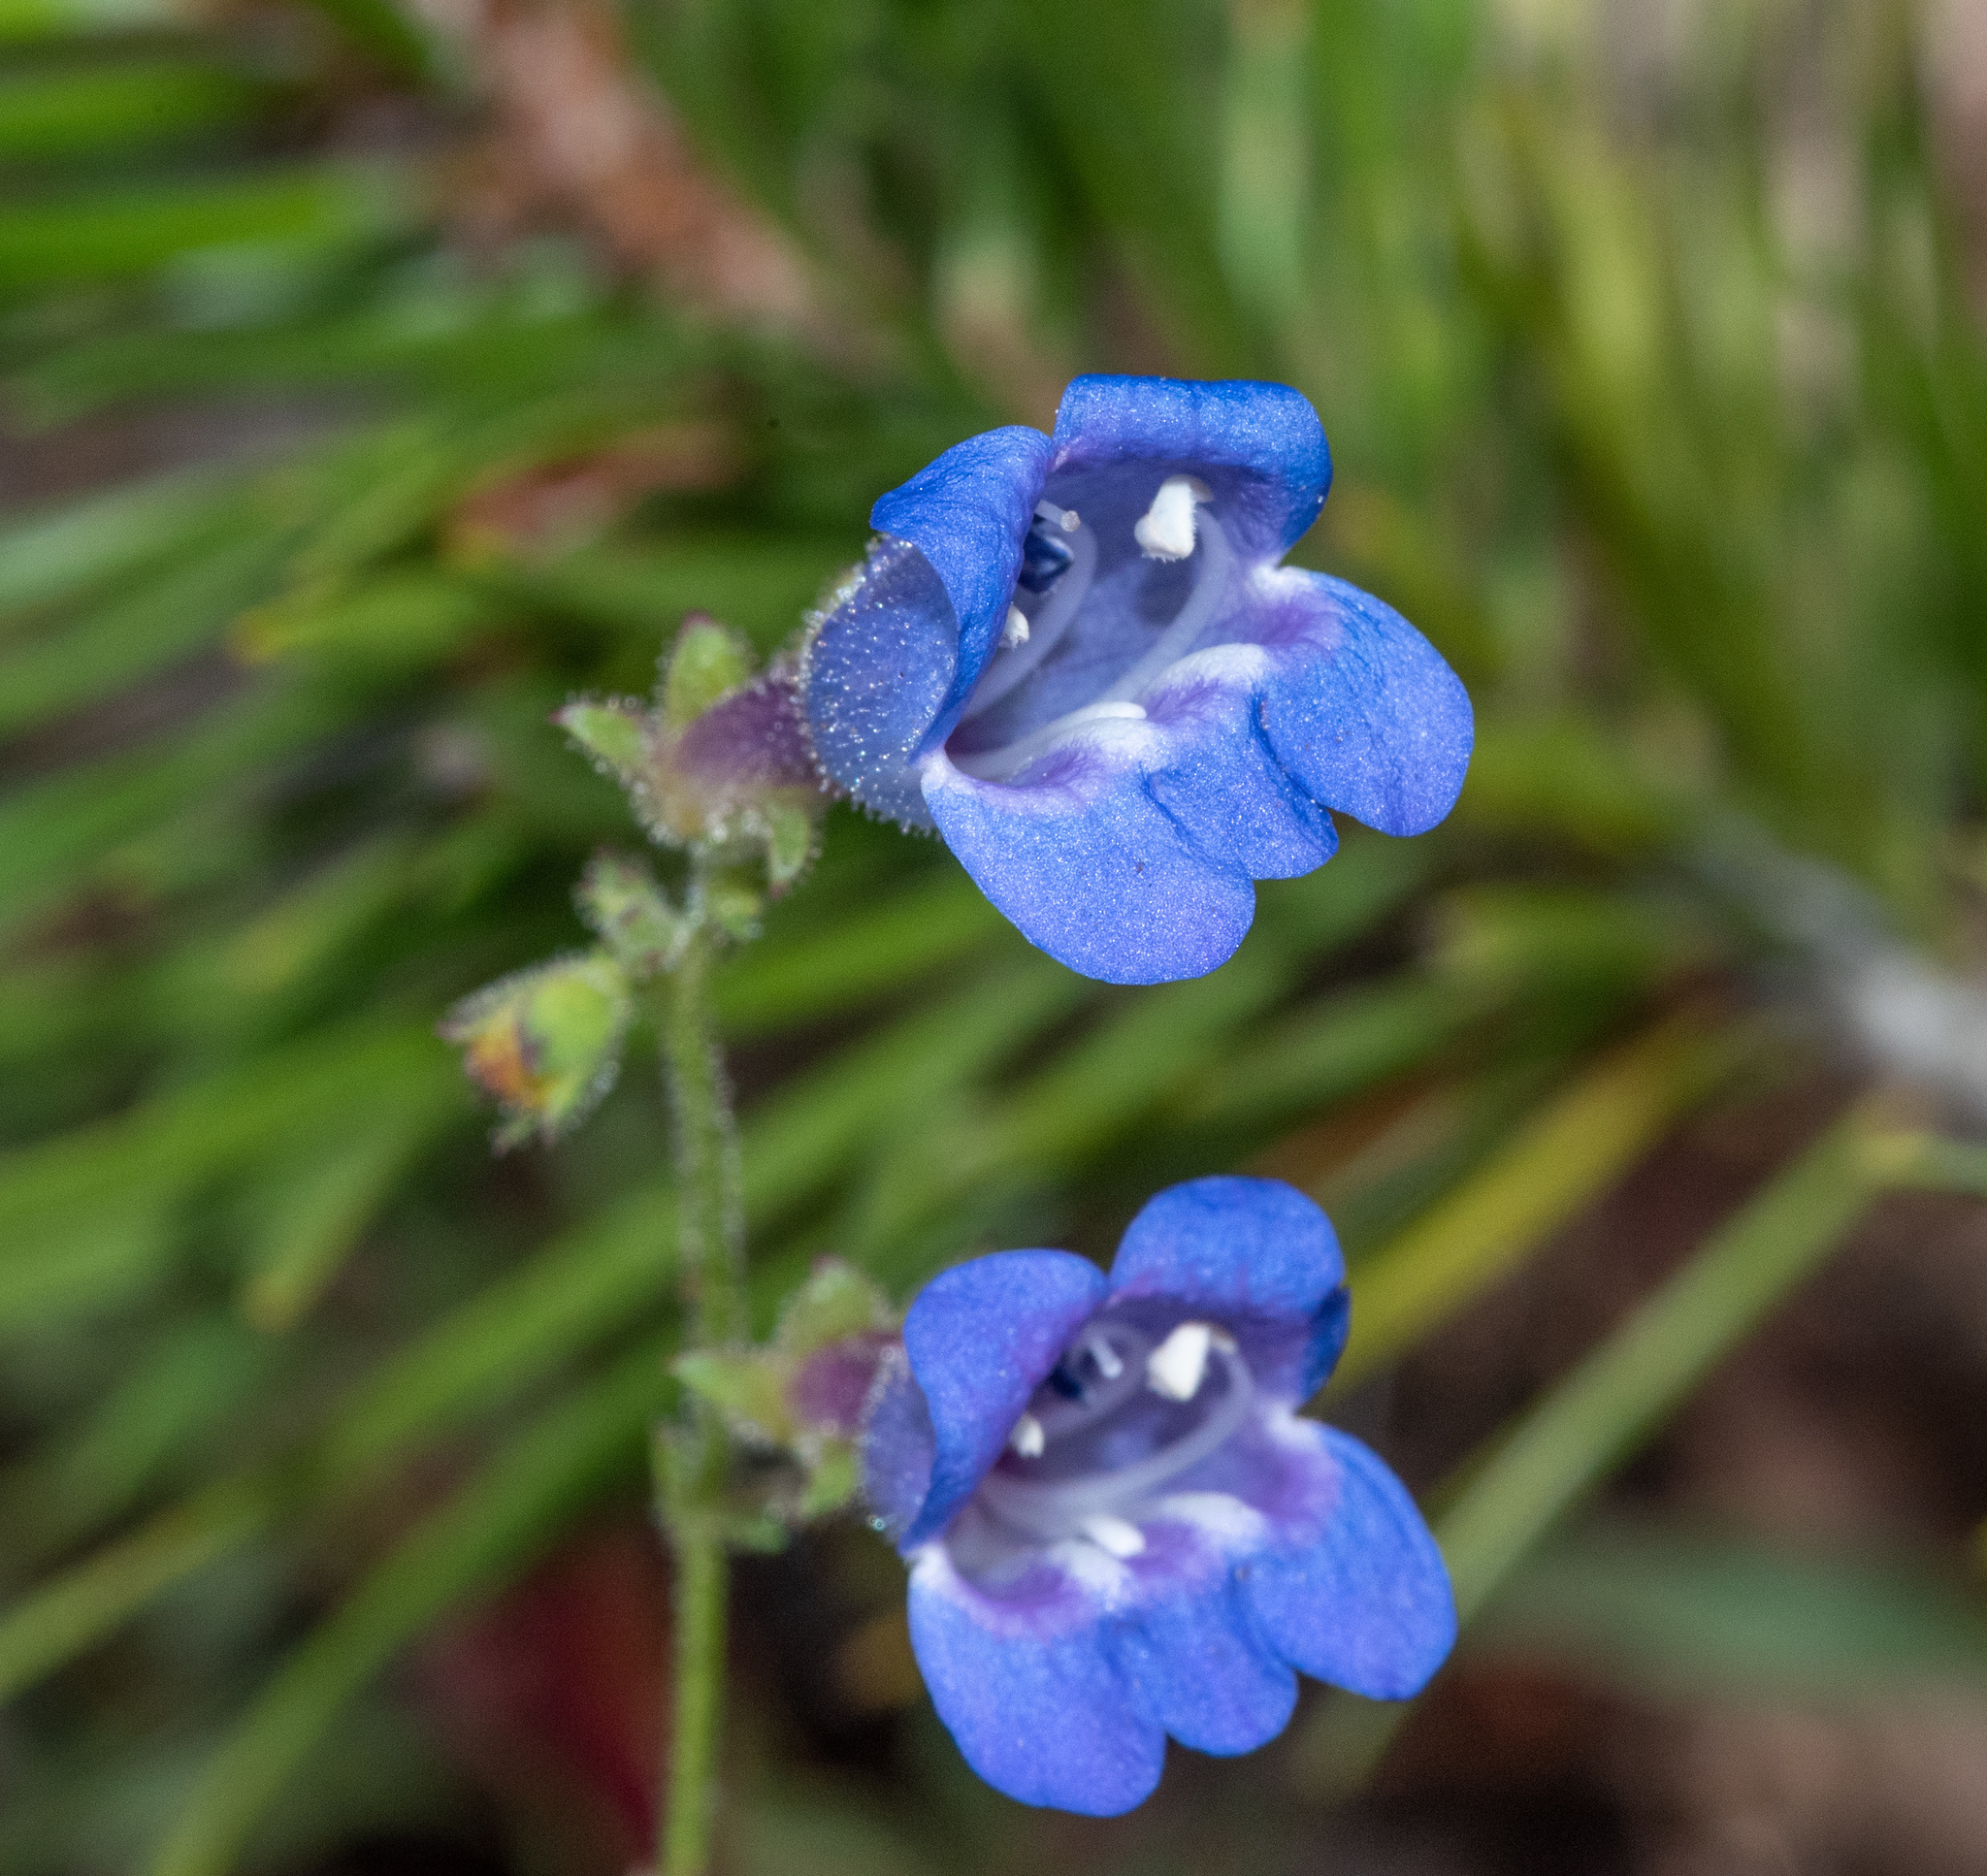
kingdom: Plantae
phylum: Tracheophyta
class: Magnoliopsida
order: Lamiales
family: Plantaginaceae
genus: Penstemon
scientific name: Penstemon laetus
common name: Gay penstemon
